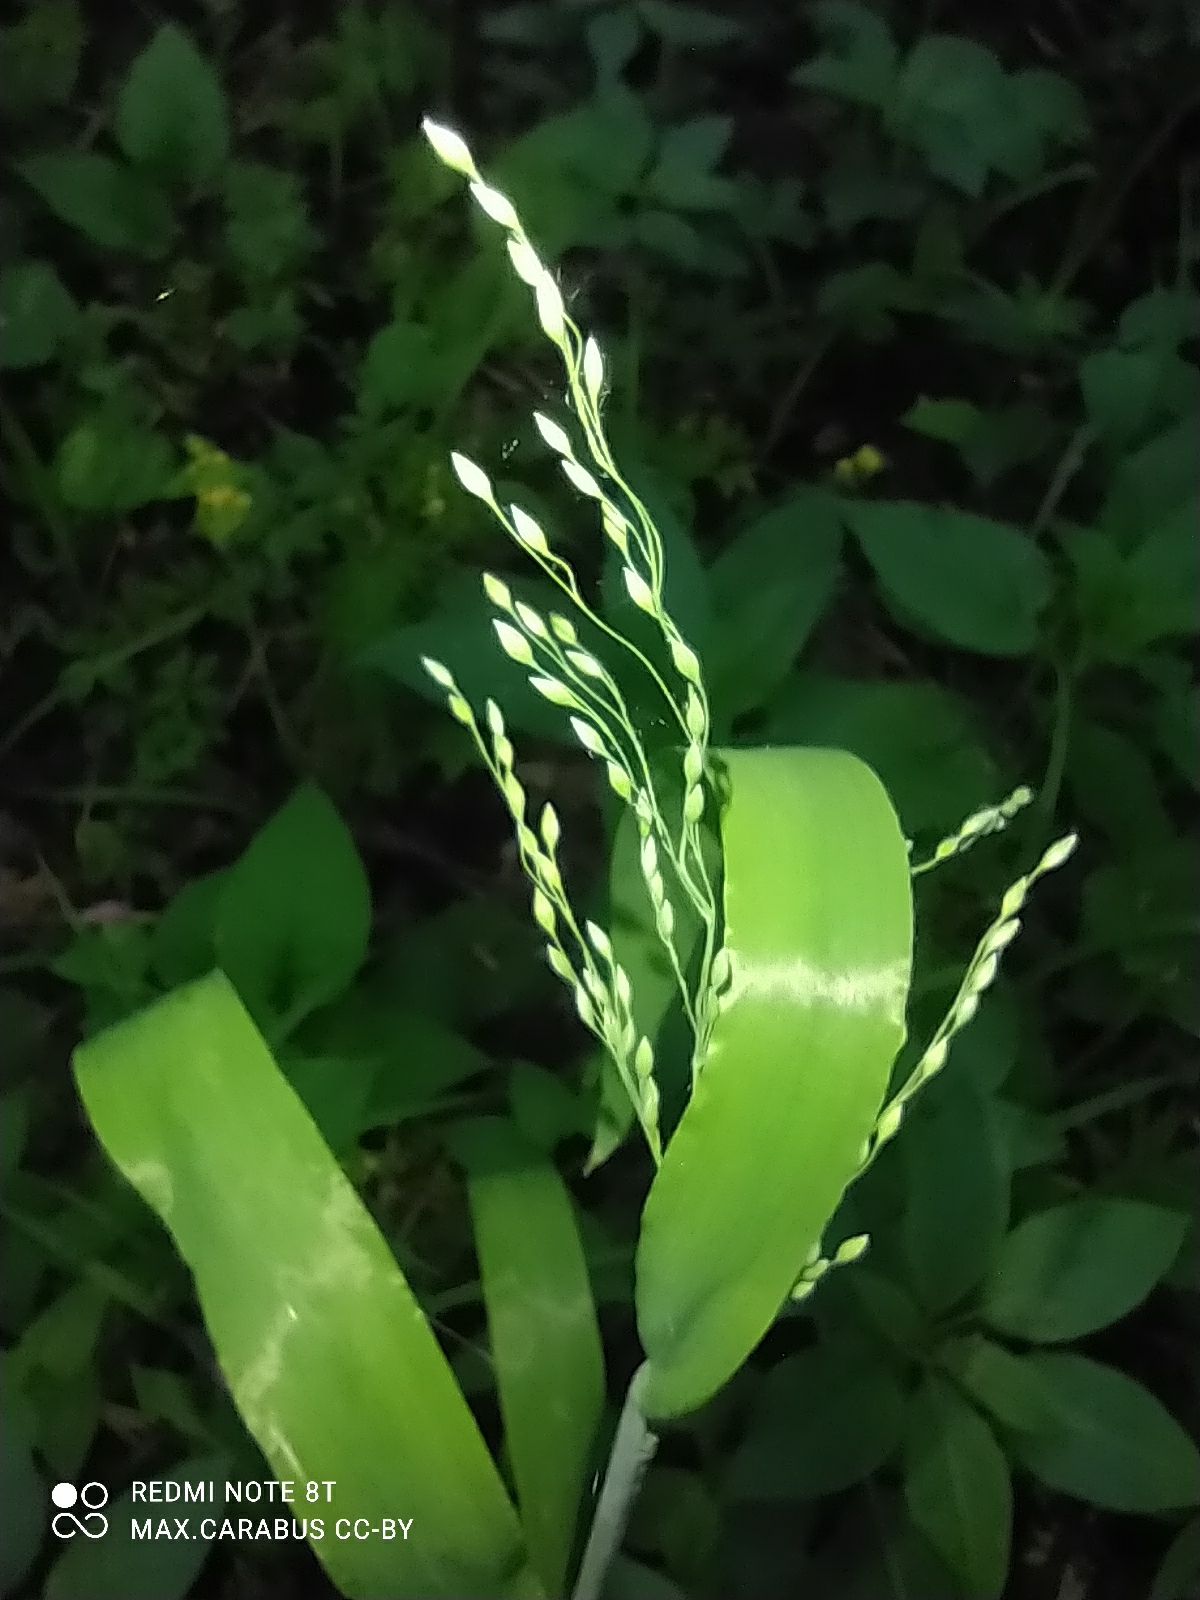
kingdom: Plantae
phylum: Tracheophyta
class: Liliopsida
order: Poales
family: Poaceae
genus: Milium
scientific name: Milium effusum
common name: Wood millet
